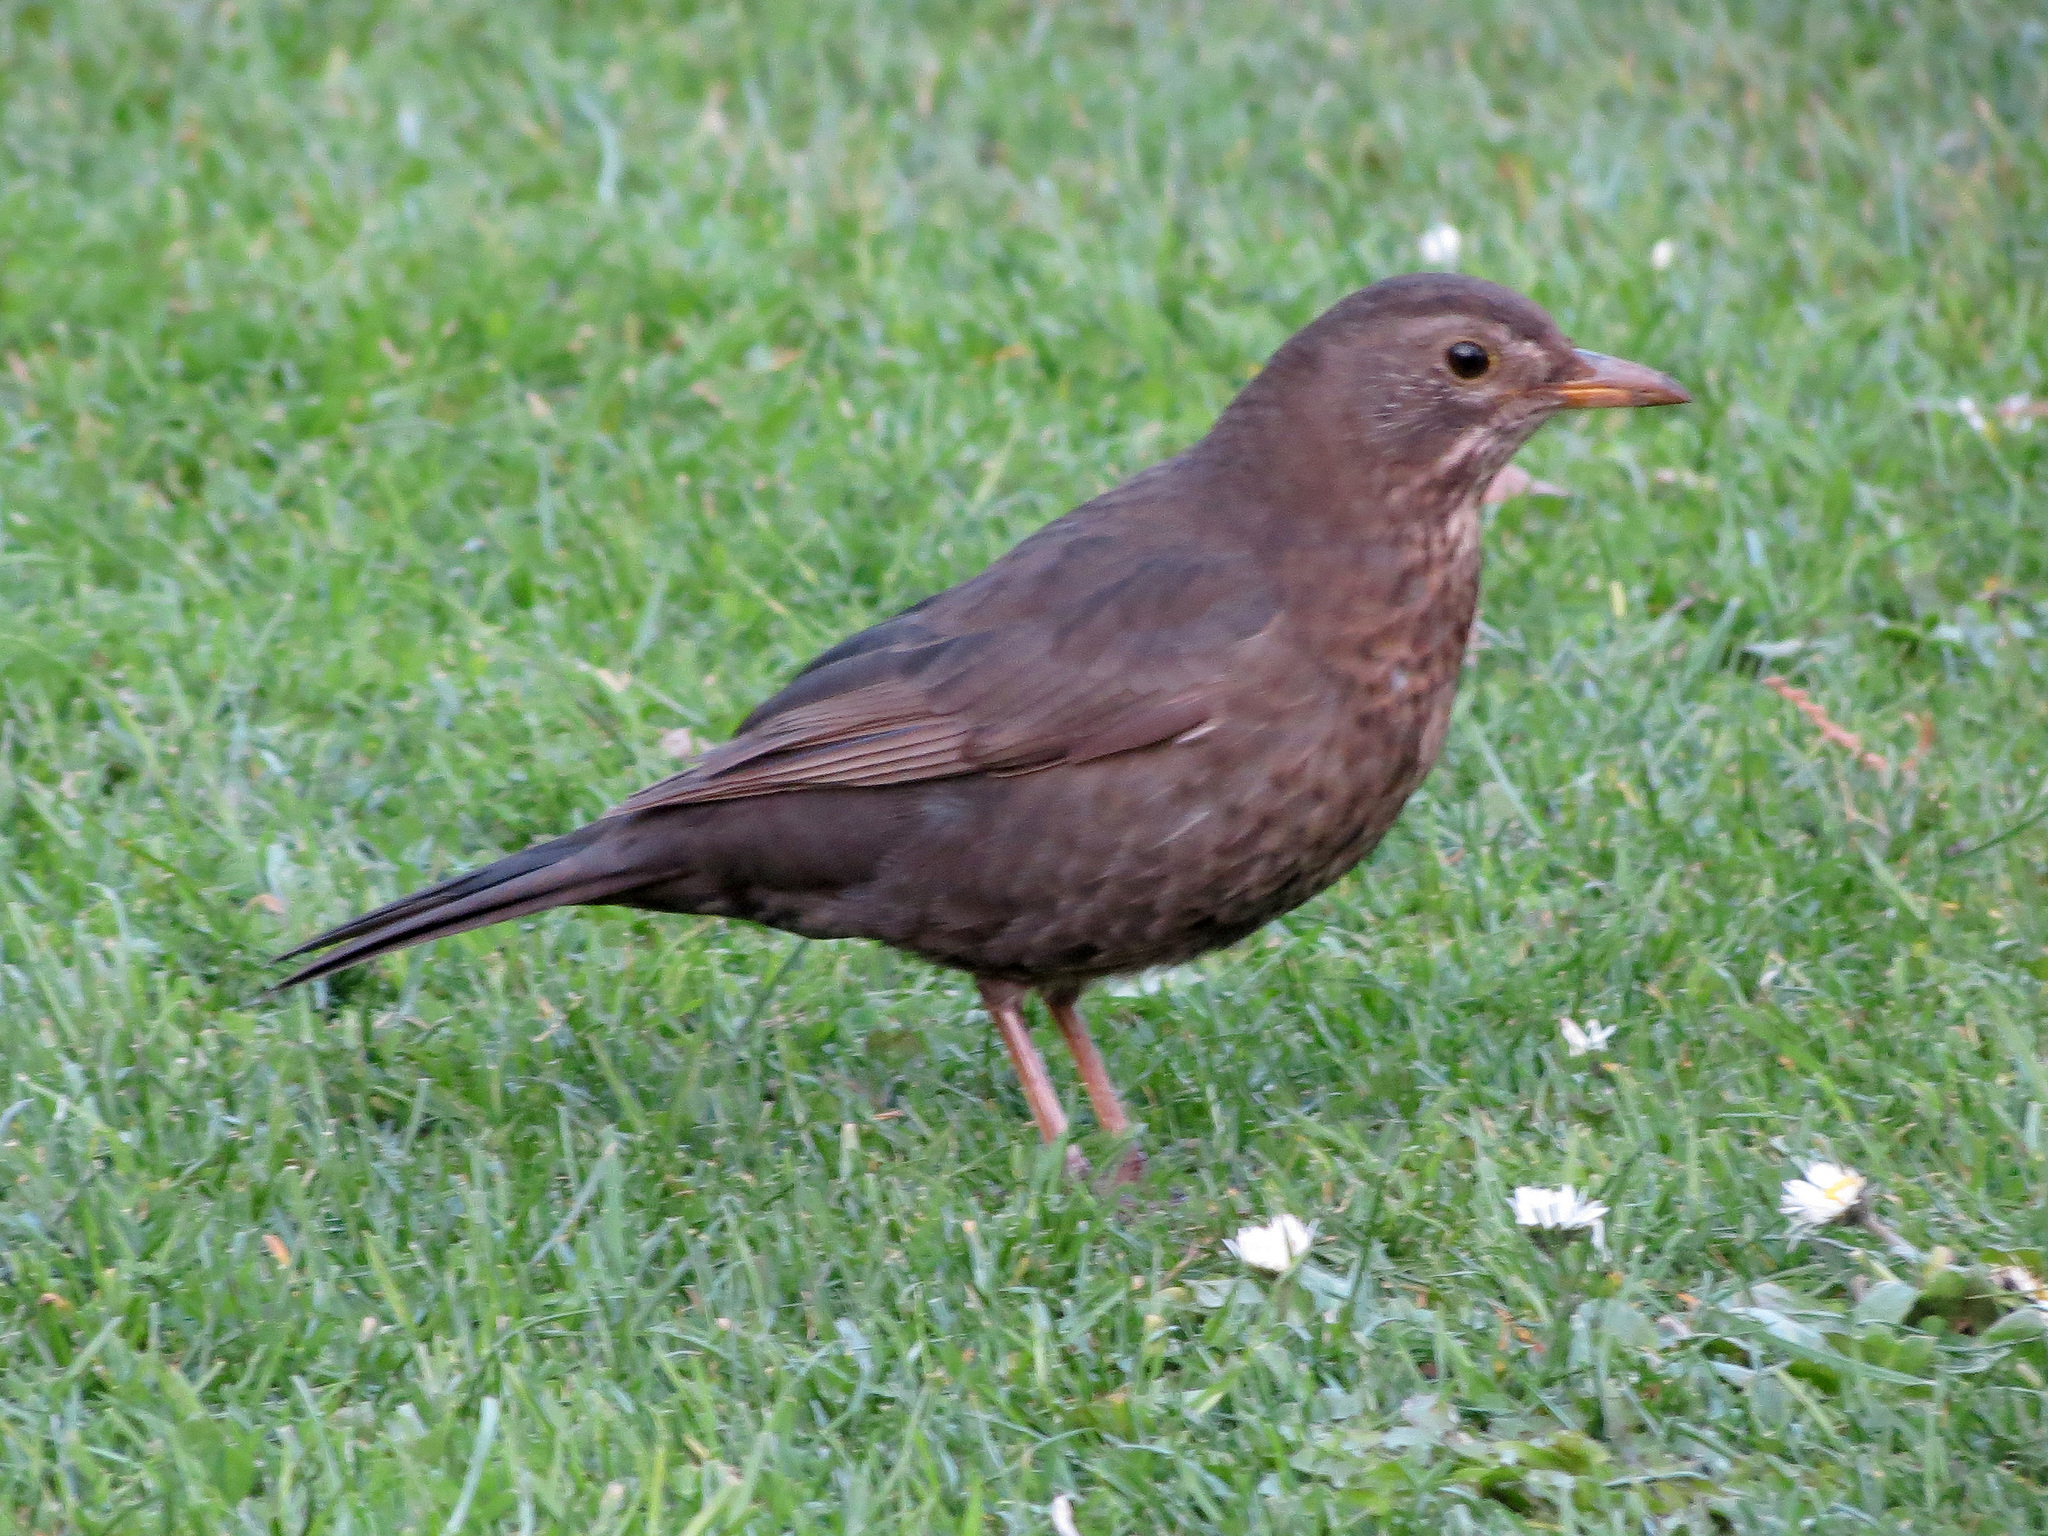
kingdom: Animalia
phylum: Chordata
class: Aves
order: Passeriformes
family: Turdidae
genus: Turdus
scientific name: Turdus merula
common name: Common blackbird
